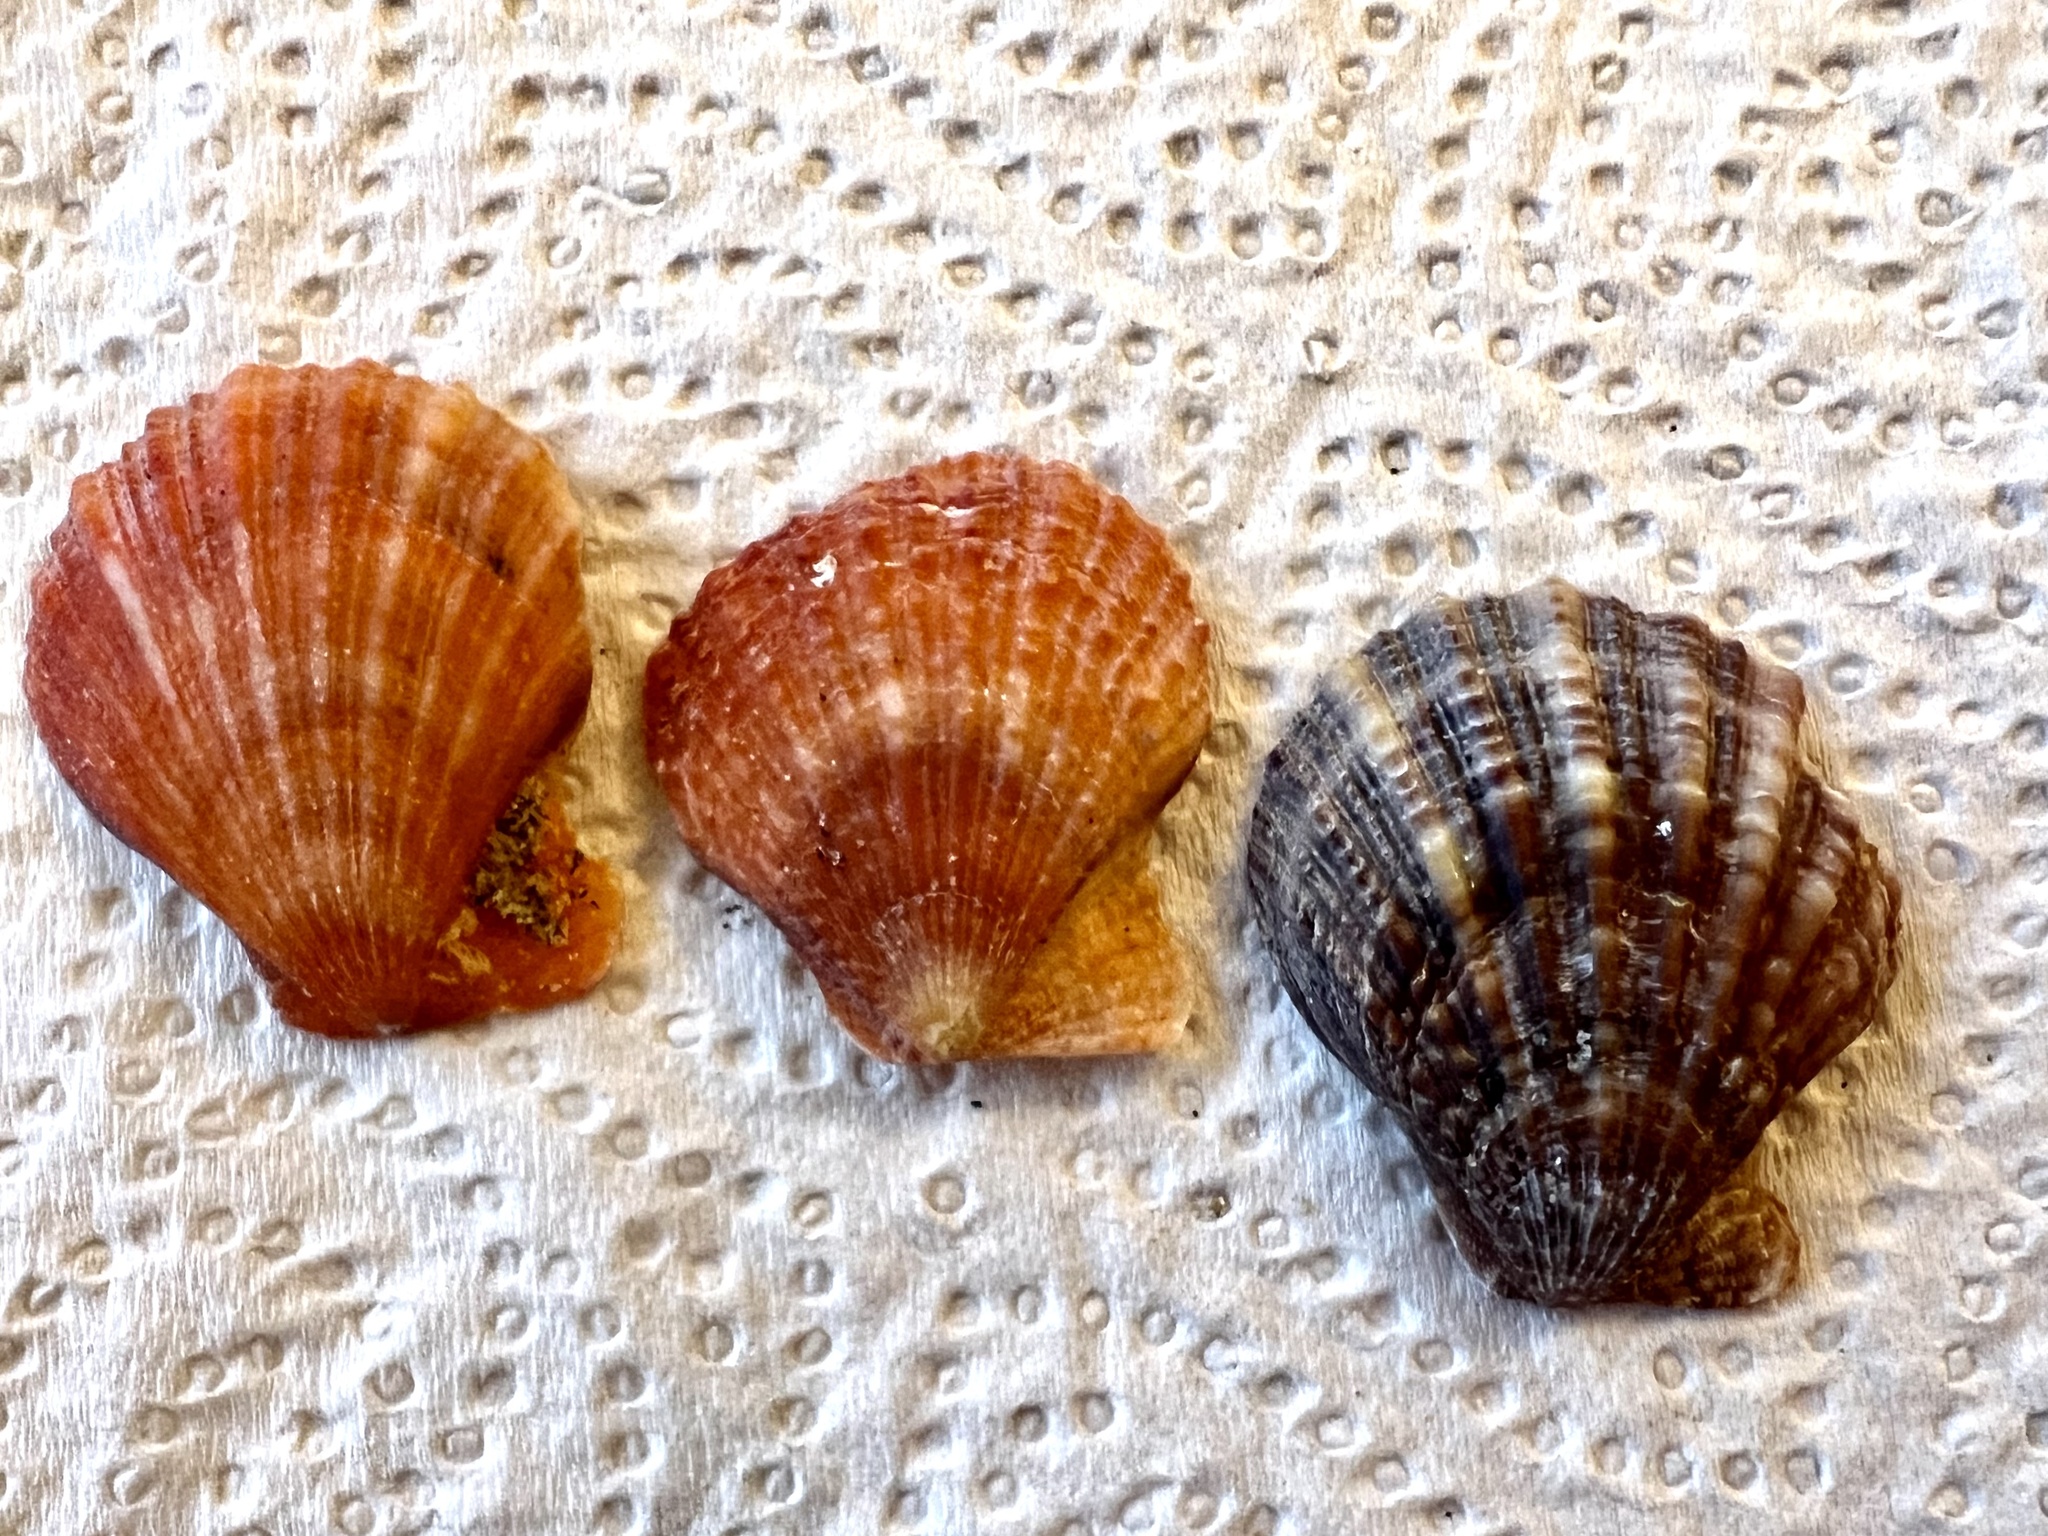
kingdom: Animalia
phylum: Mollusca
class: Bivalvia
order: Pectinida
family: Pectinidae
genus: Talochlamys
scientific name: Talochlamys zelandiae
